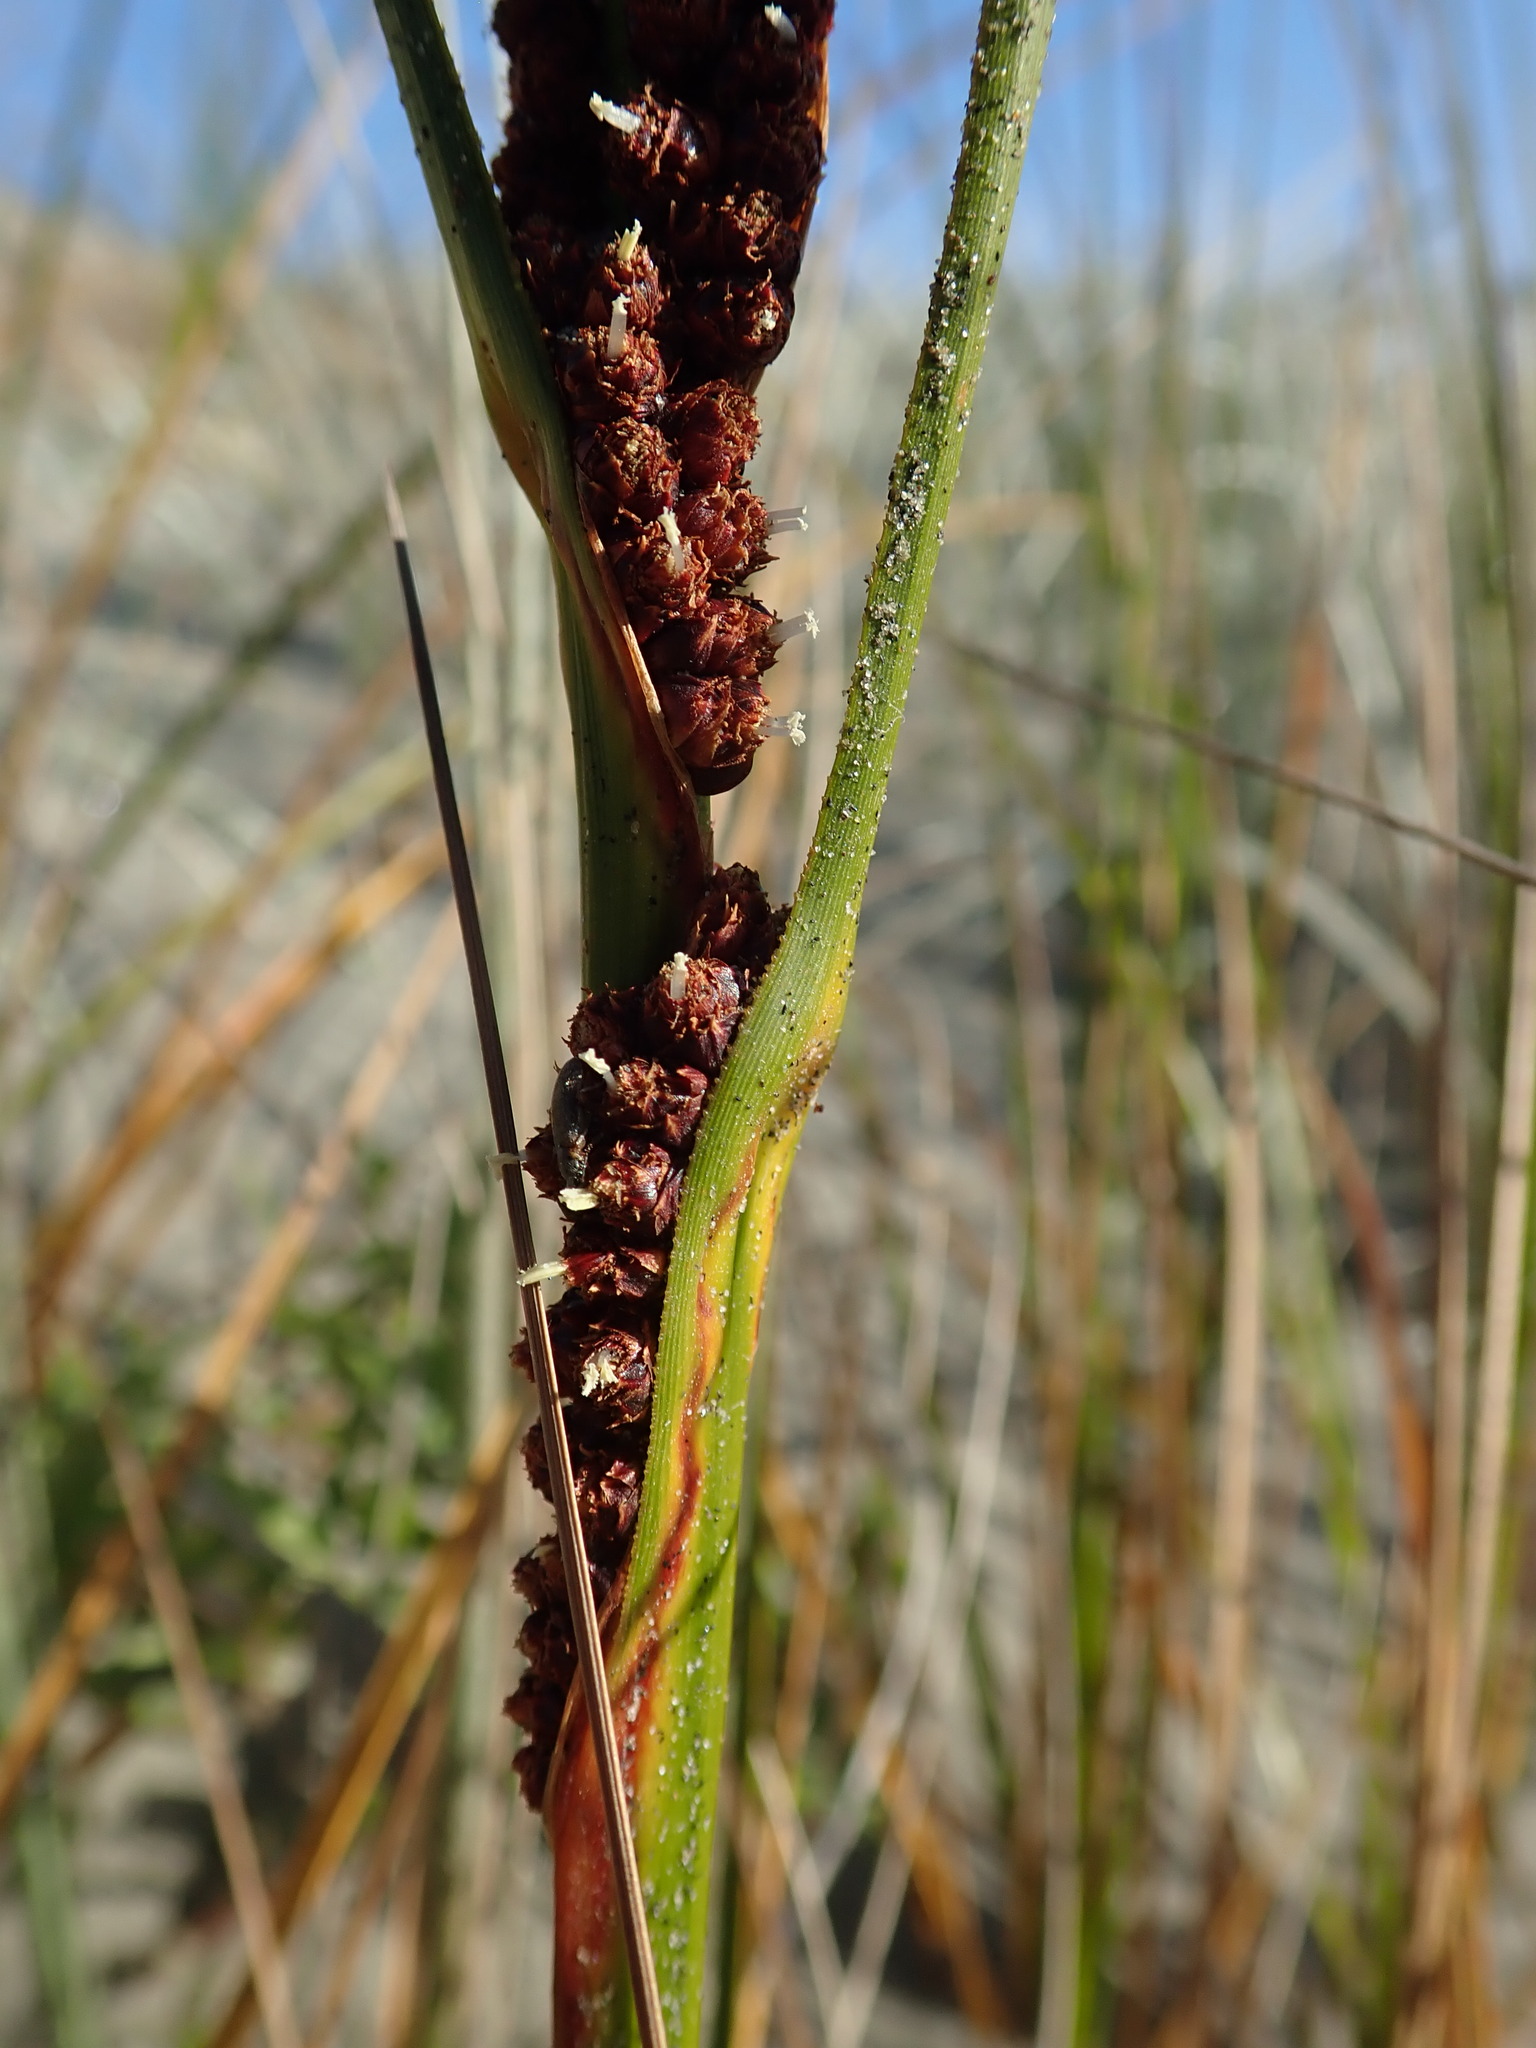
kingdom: Plantae
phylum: Tracheophyta
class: Liliopsida
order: Poales
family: Cyperaceae
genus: Ficinia
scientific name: Ficinia spiralis
